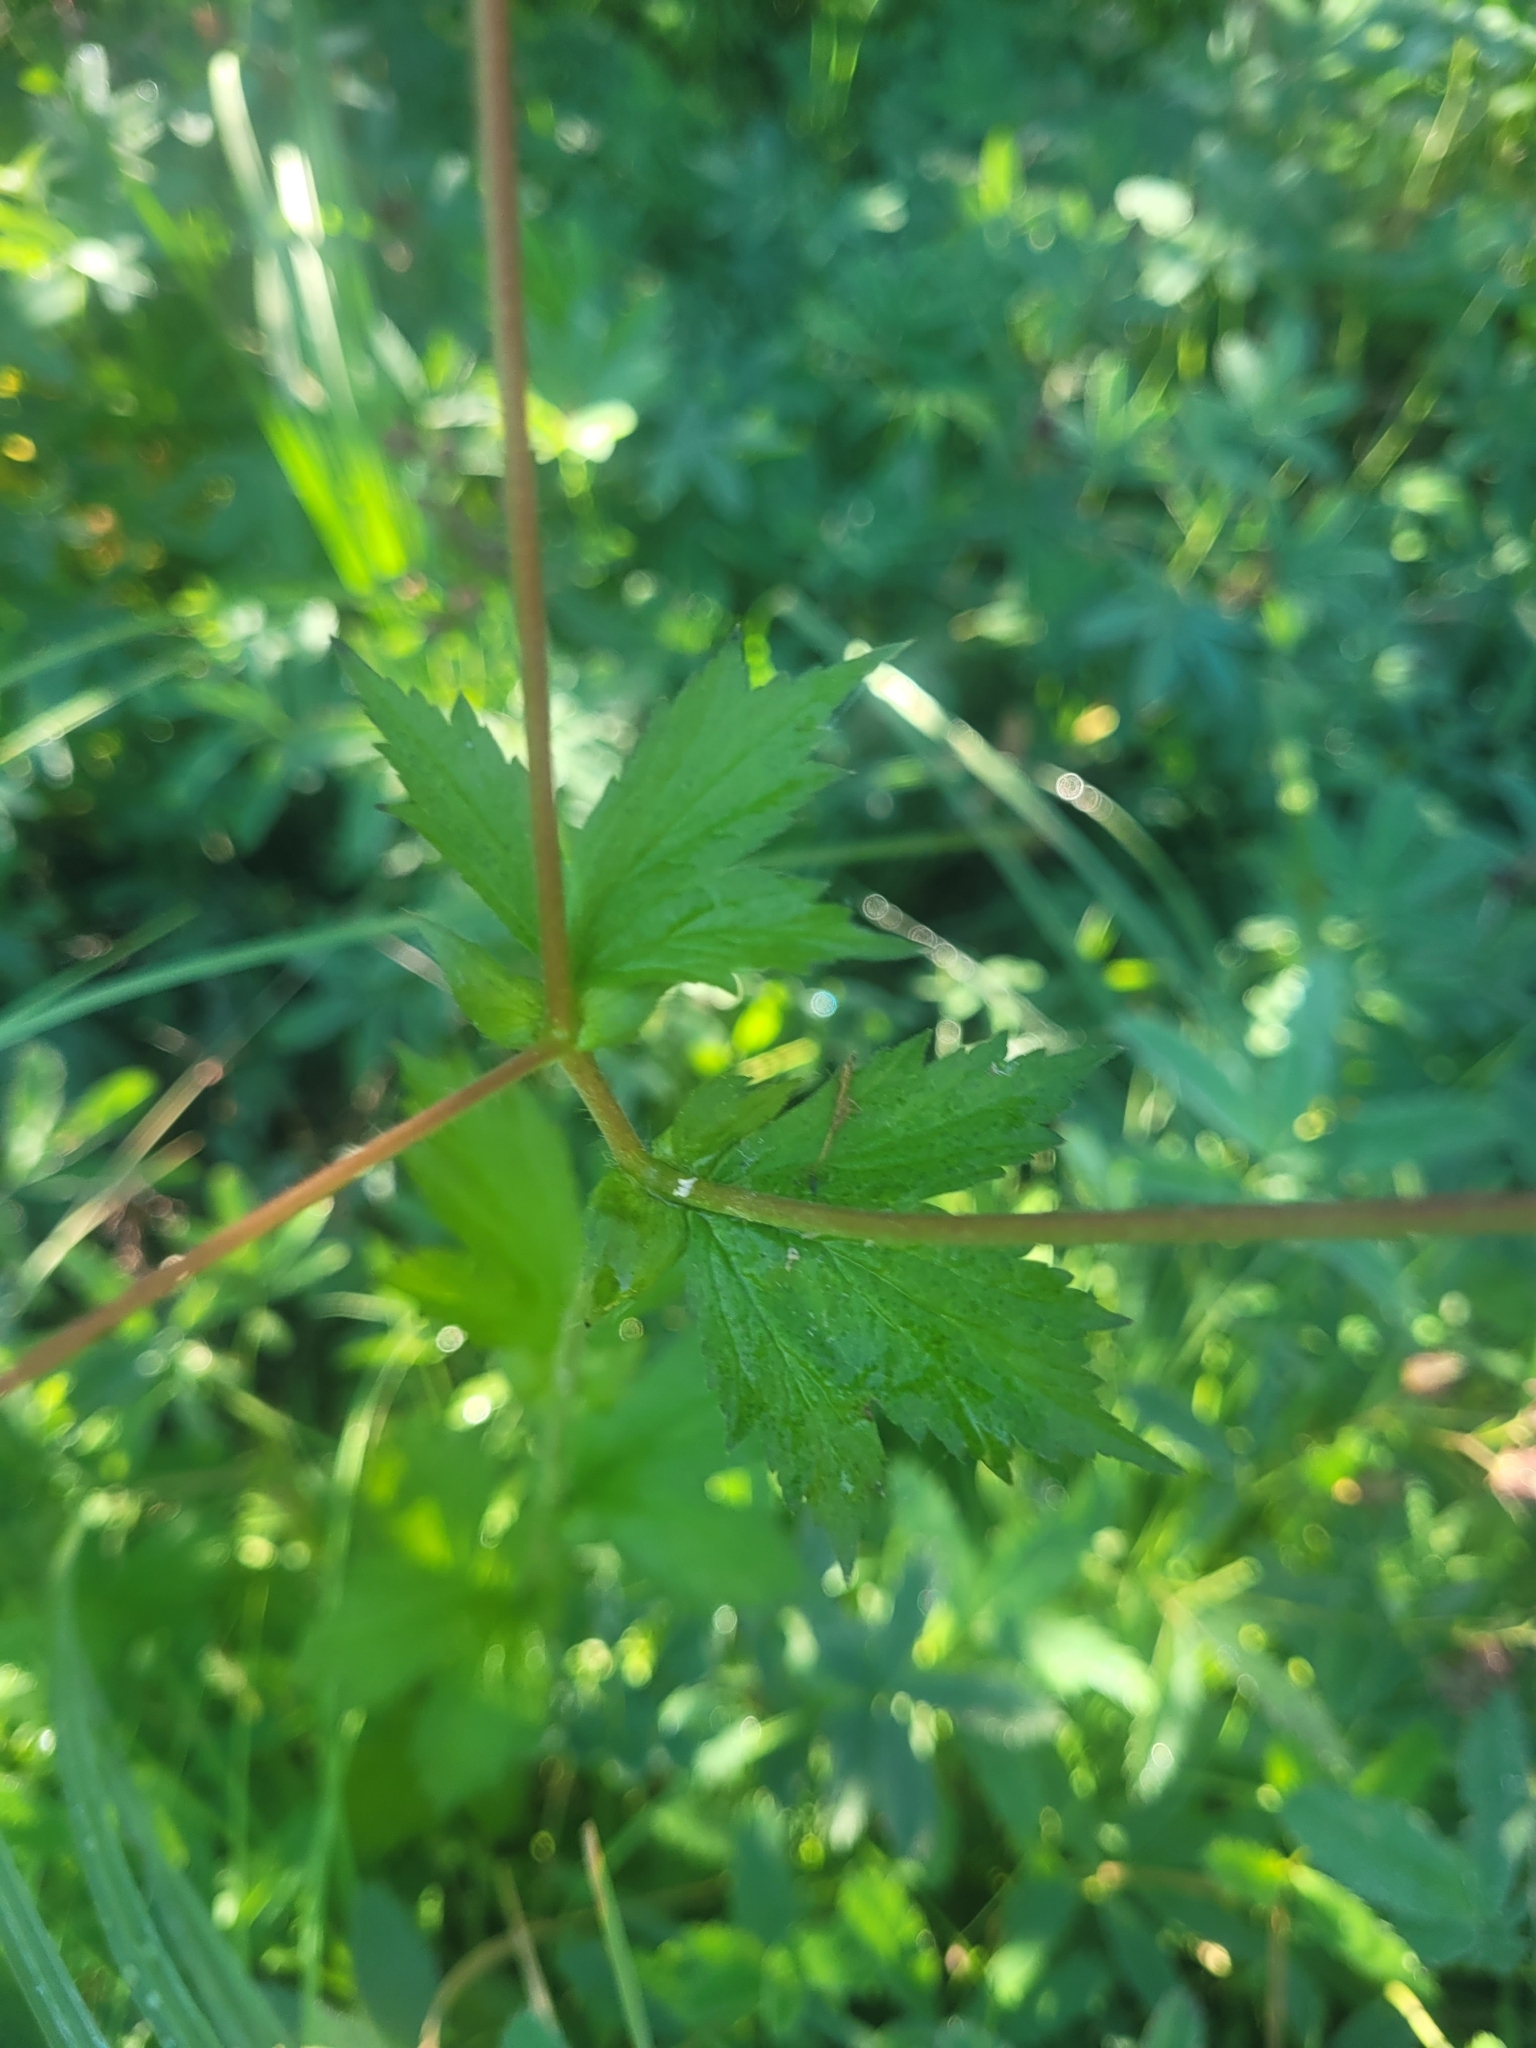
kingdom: Plantae
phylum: Tracheophyta
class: Magnoliopsida
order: Rosales
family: Rosaceae
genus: Geum
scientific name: Geum macrophyllum
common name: Large-leaved avens
